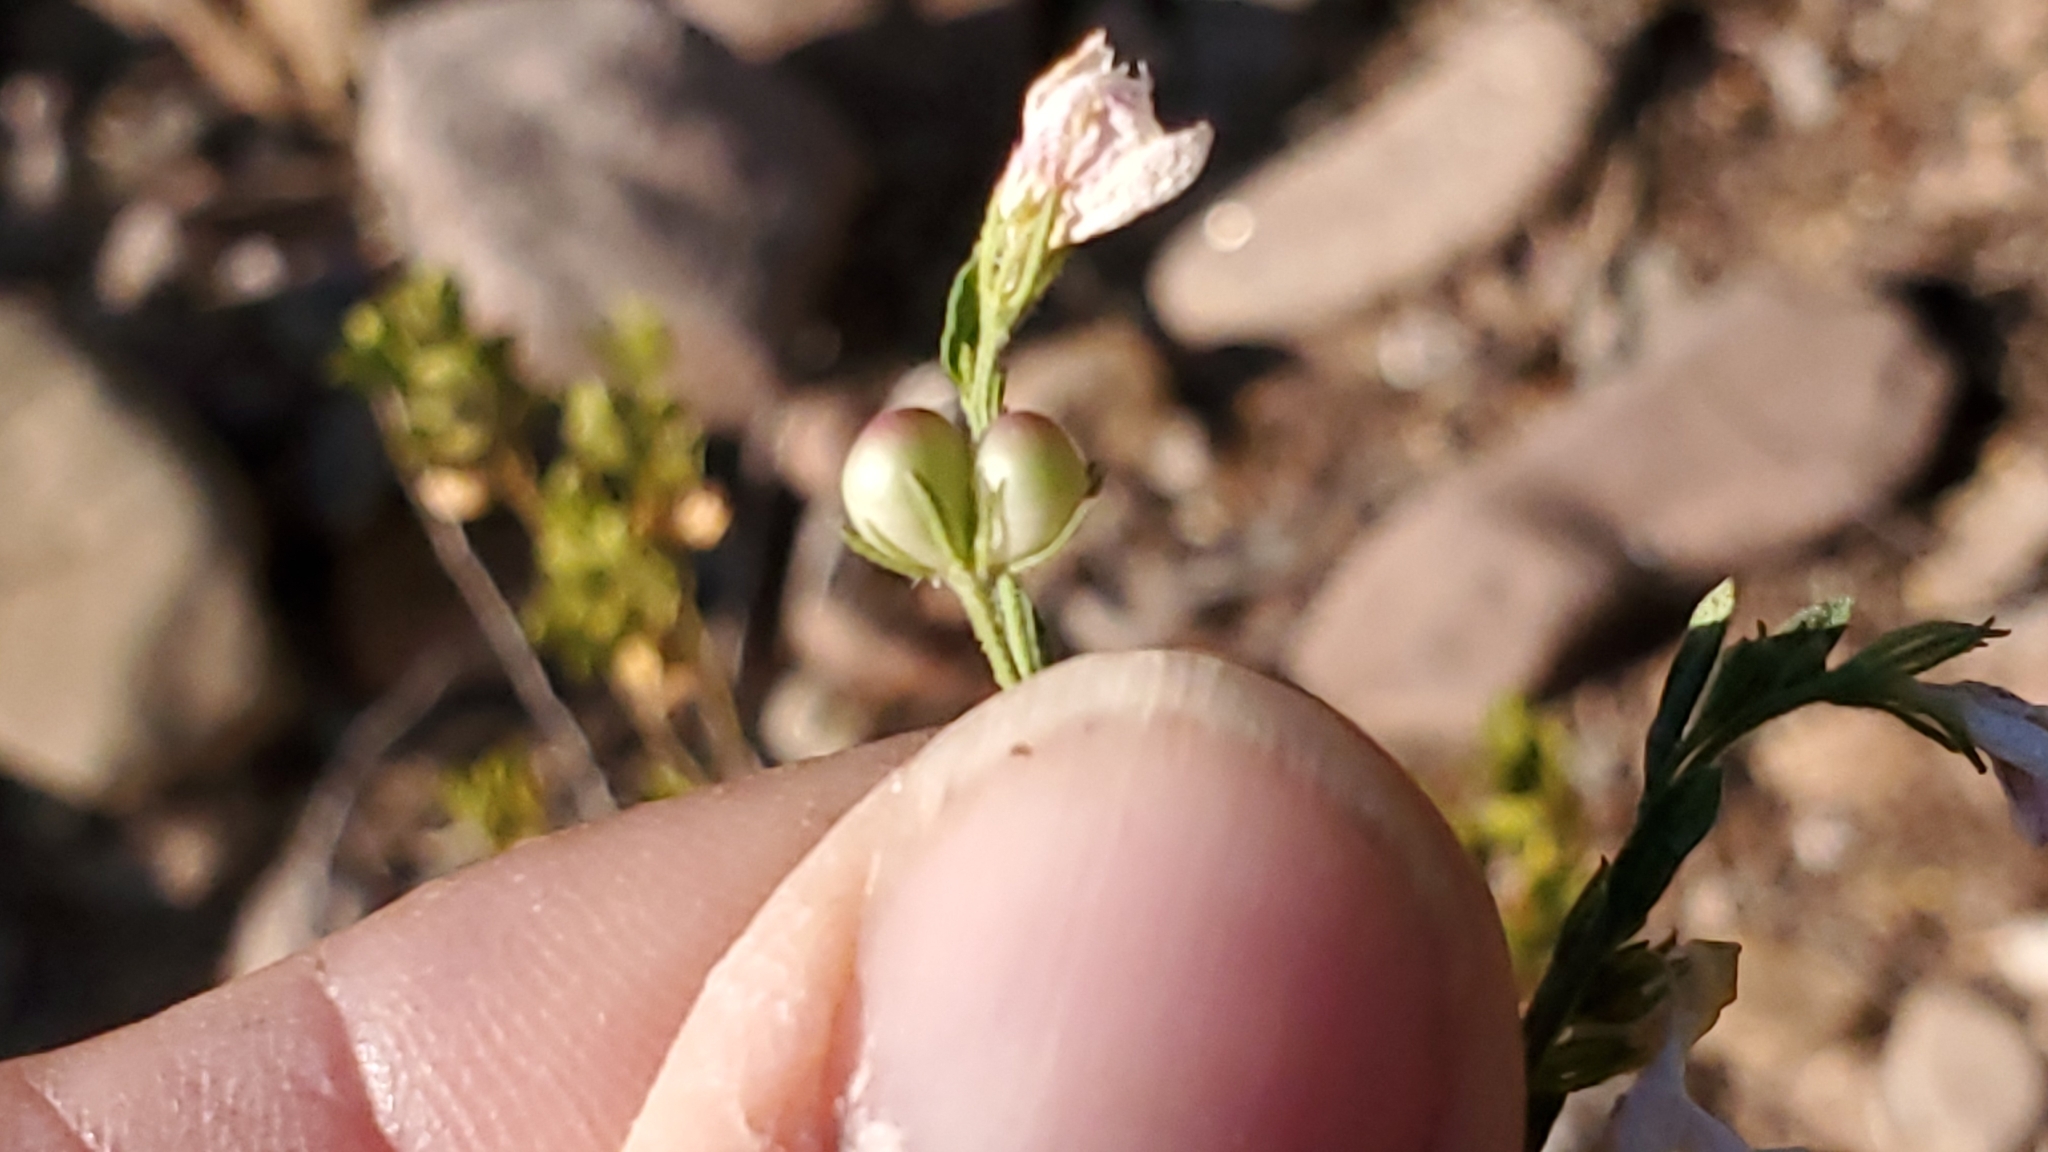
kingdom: Plantae
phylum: Tracheophyta
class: Magnoliopsida
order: Lamiales
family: Oleaceae
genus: Menodora
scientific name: Menodora scabra
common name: Rough menodora
